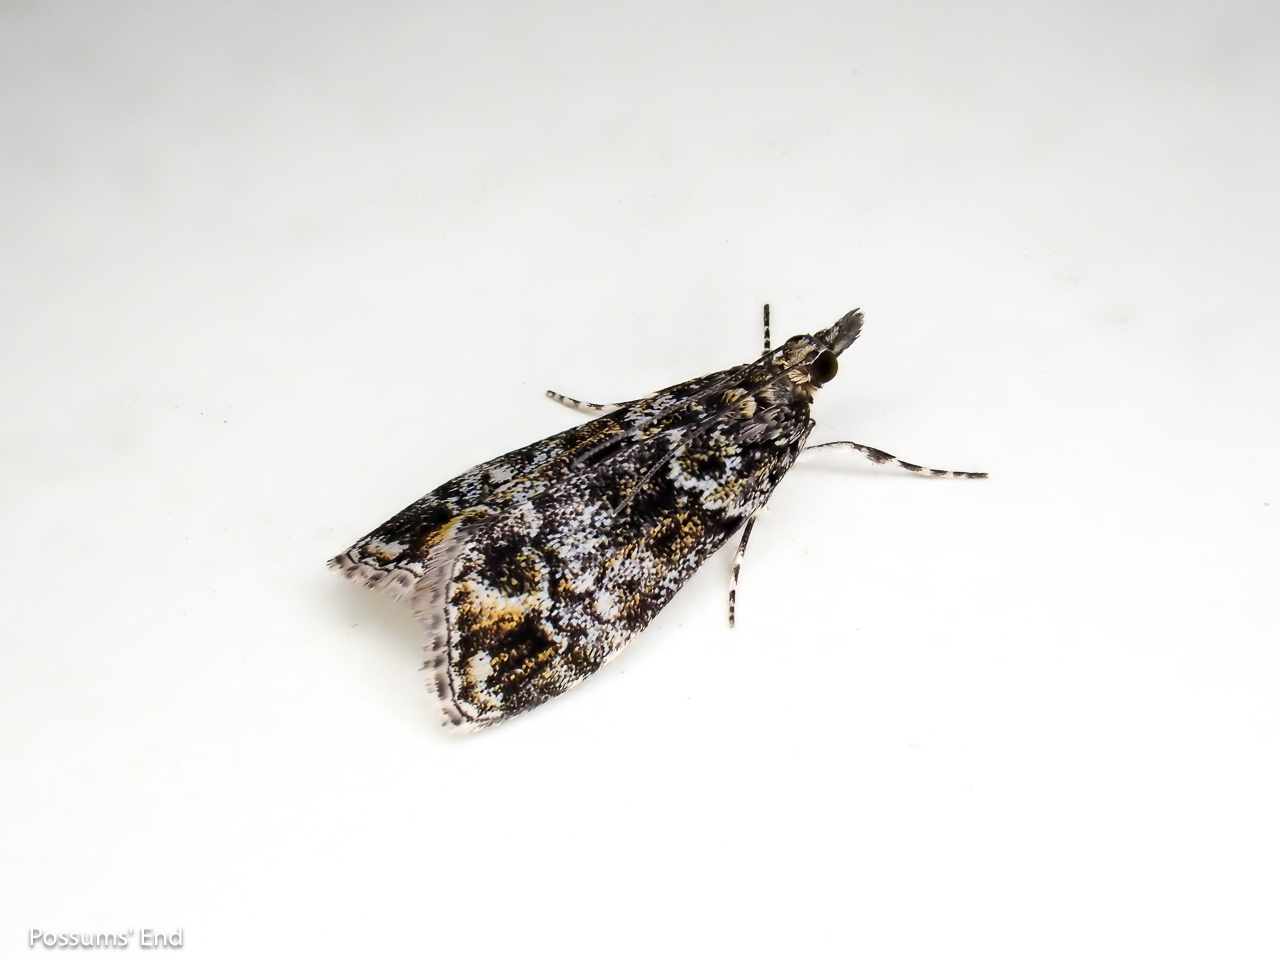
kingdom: Animalia
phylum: Arthropoda
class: Insecta
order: Lepidoptera
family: Crambidae
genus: Eudonia
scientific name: Eudonia minualis
